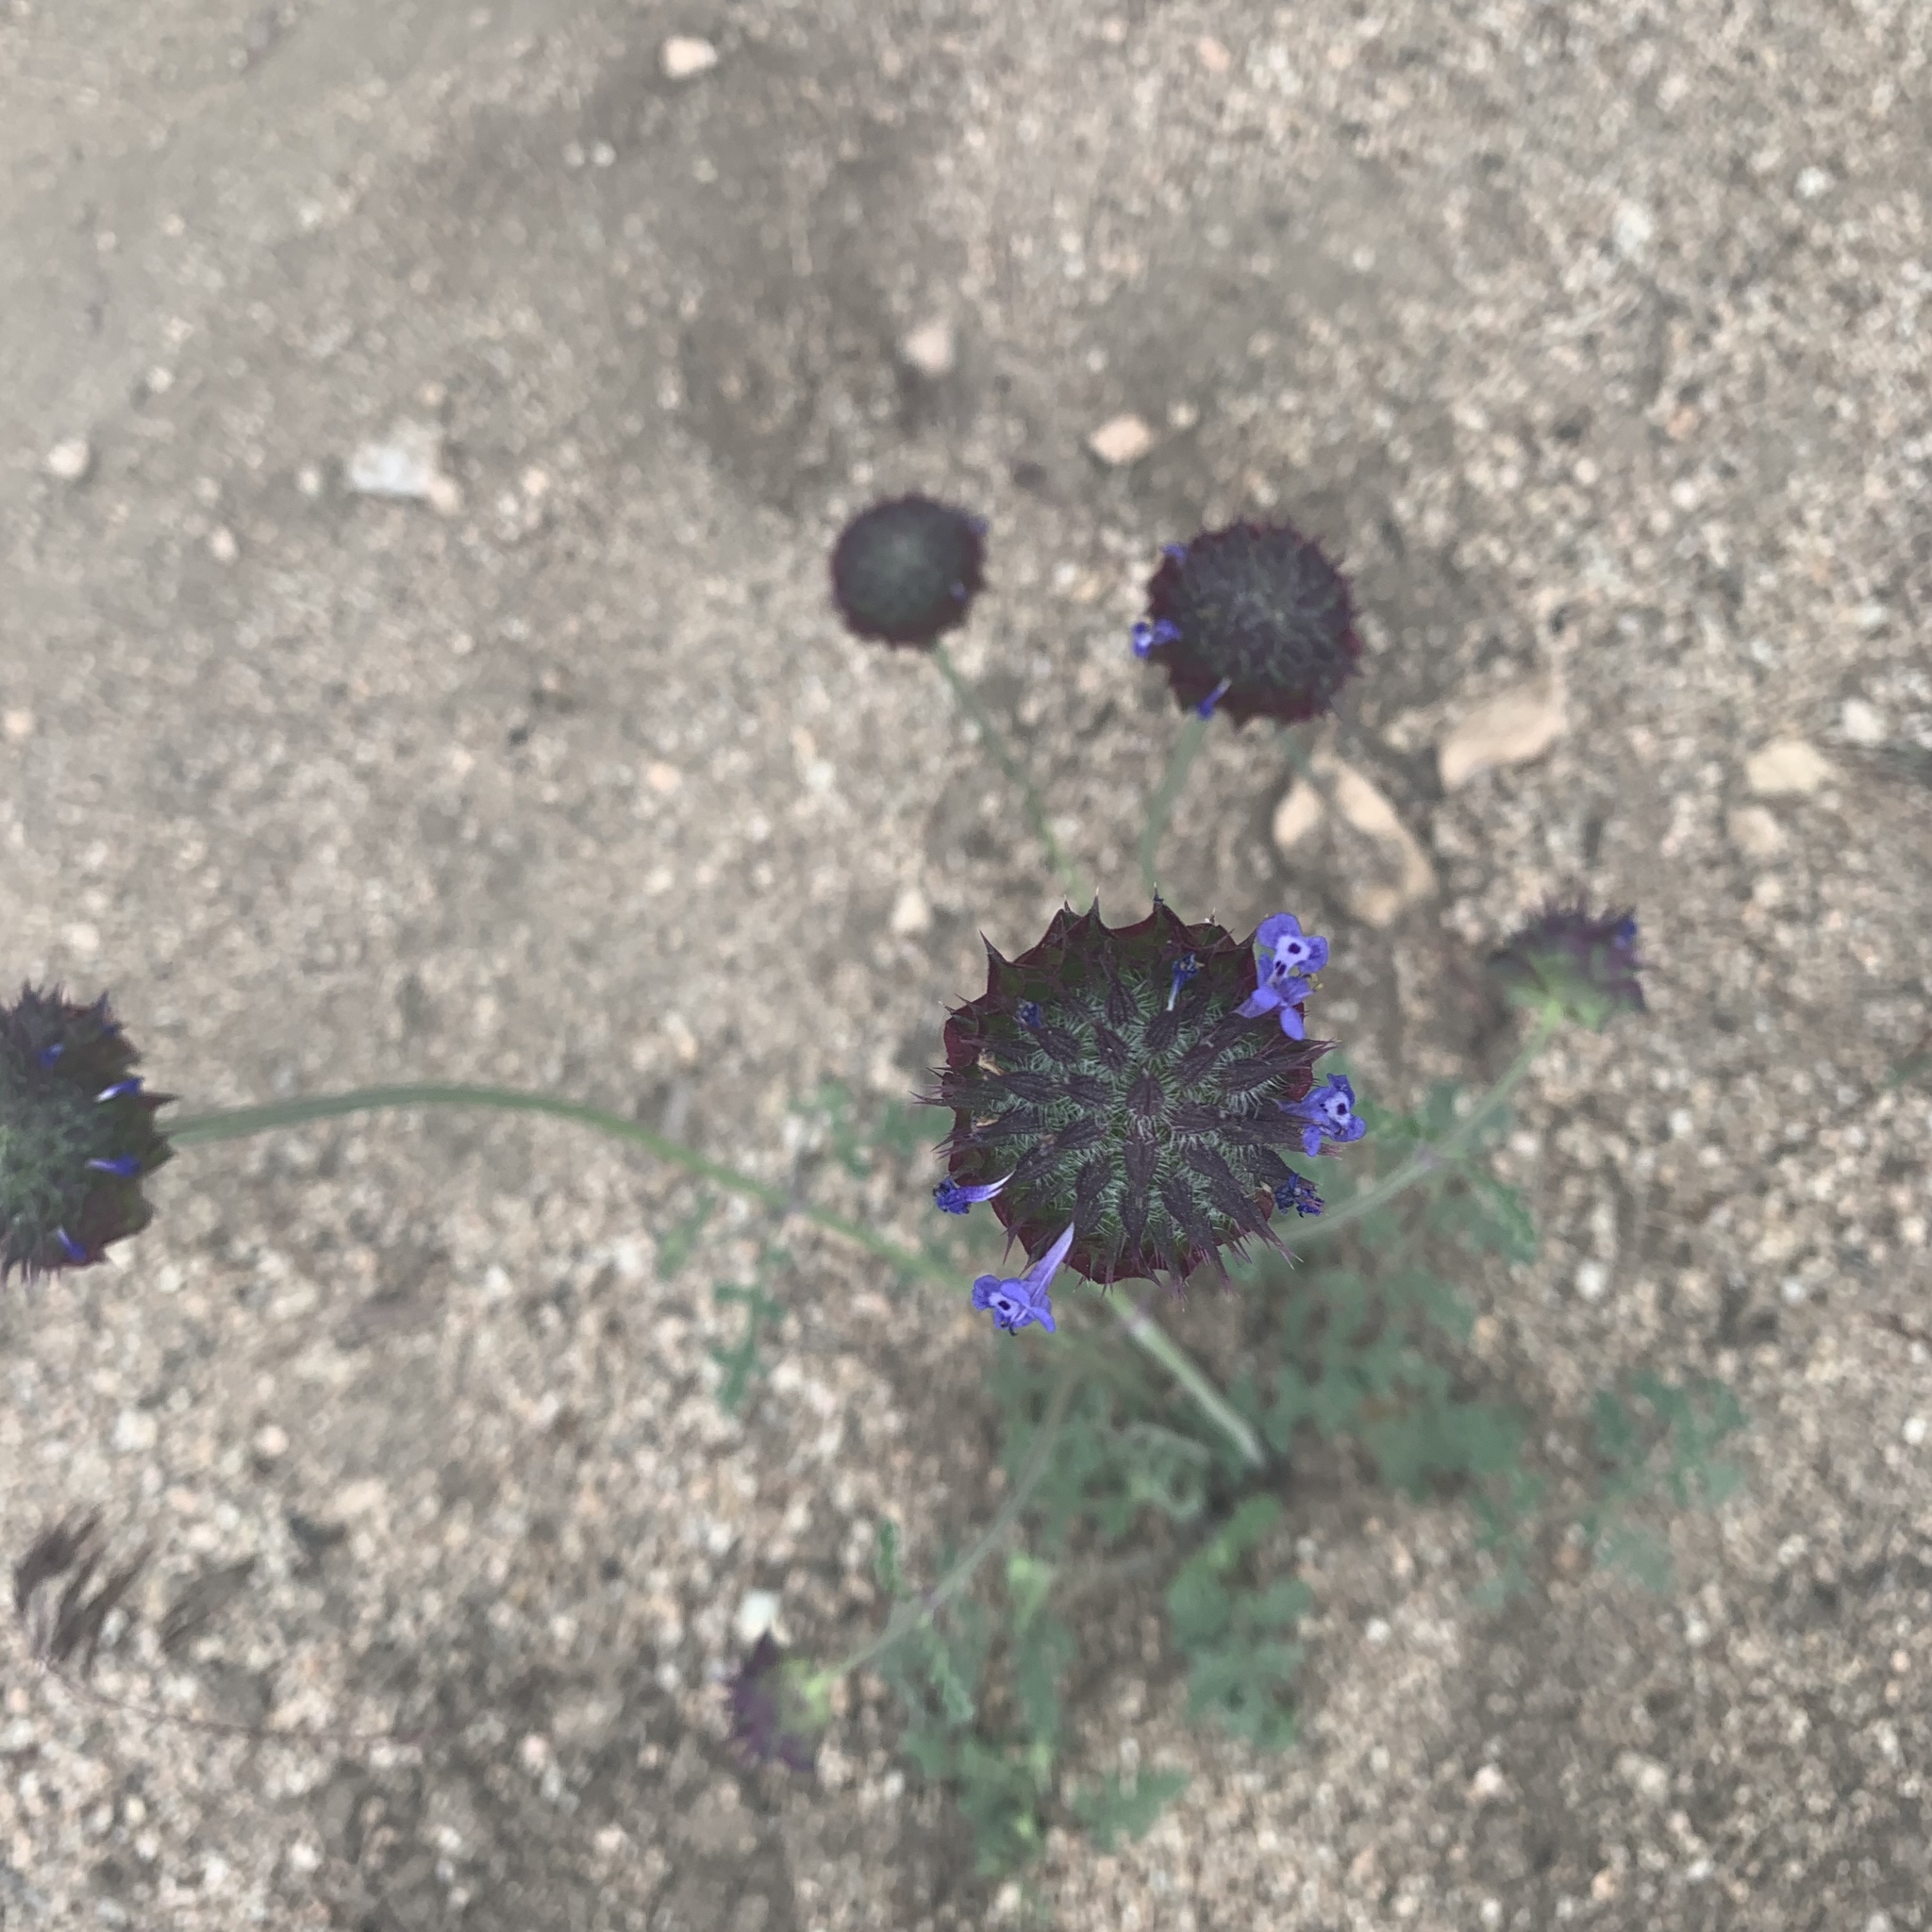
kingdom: Plantae
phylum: Tracheophyta
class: Magnoliopsida
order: Lamiales
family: Lamiaceae
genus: Salvia
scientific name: Salvia columbariae
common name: Chia
